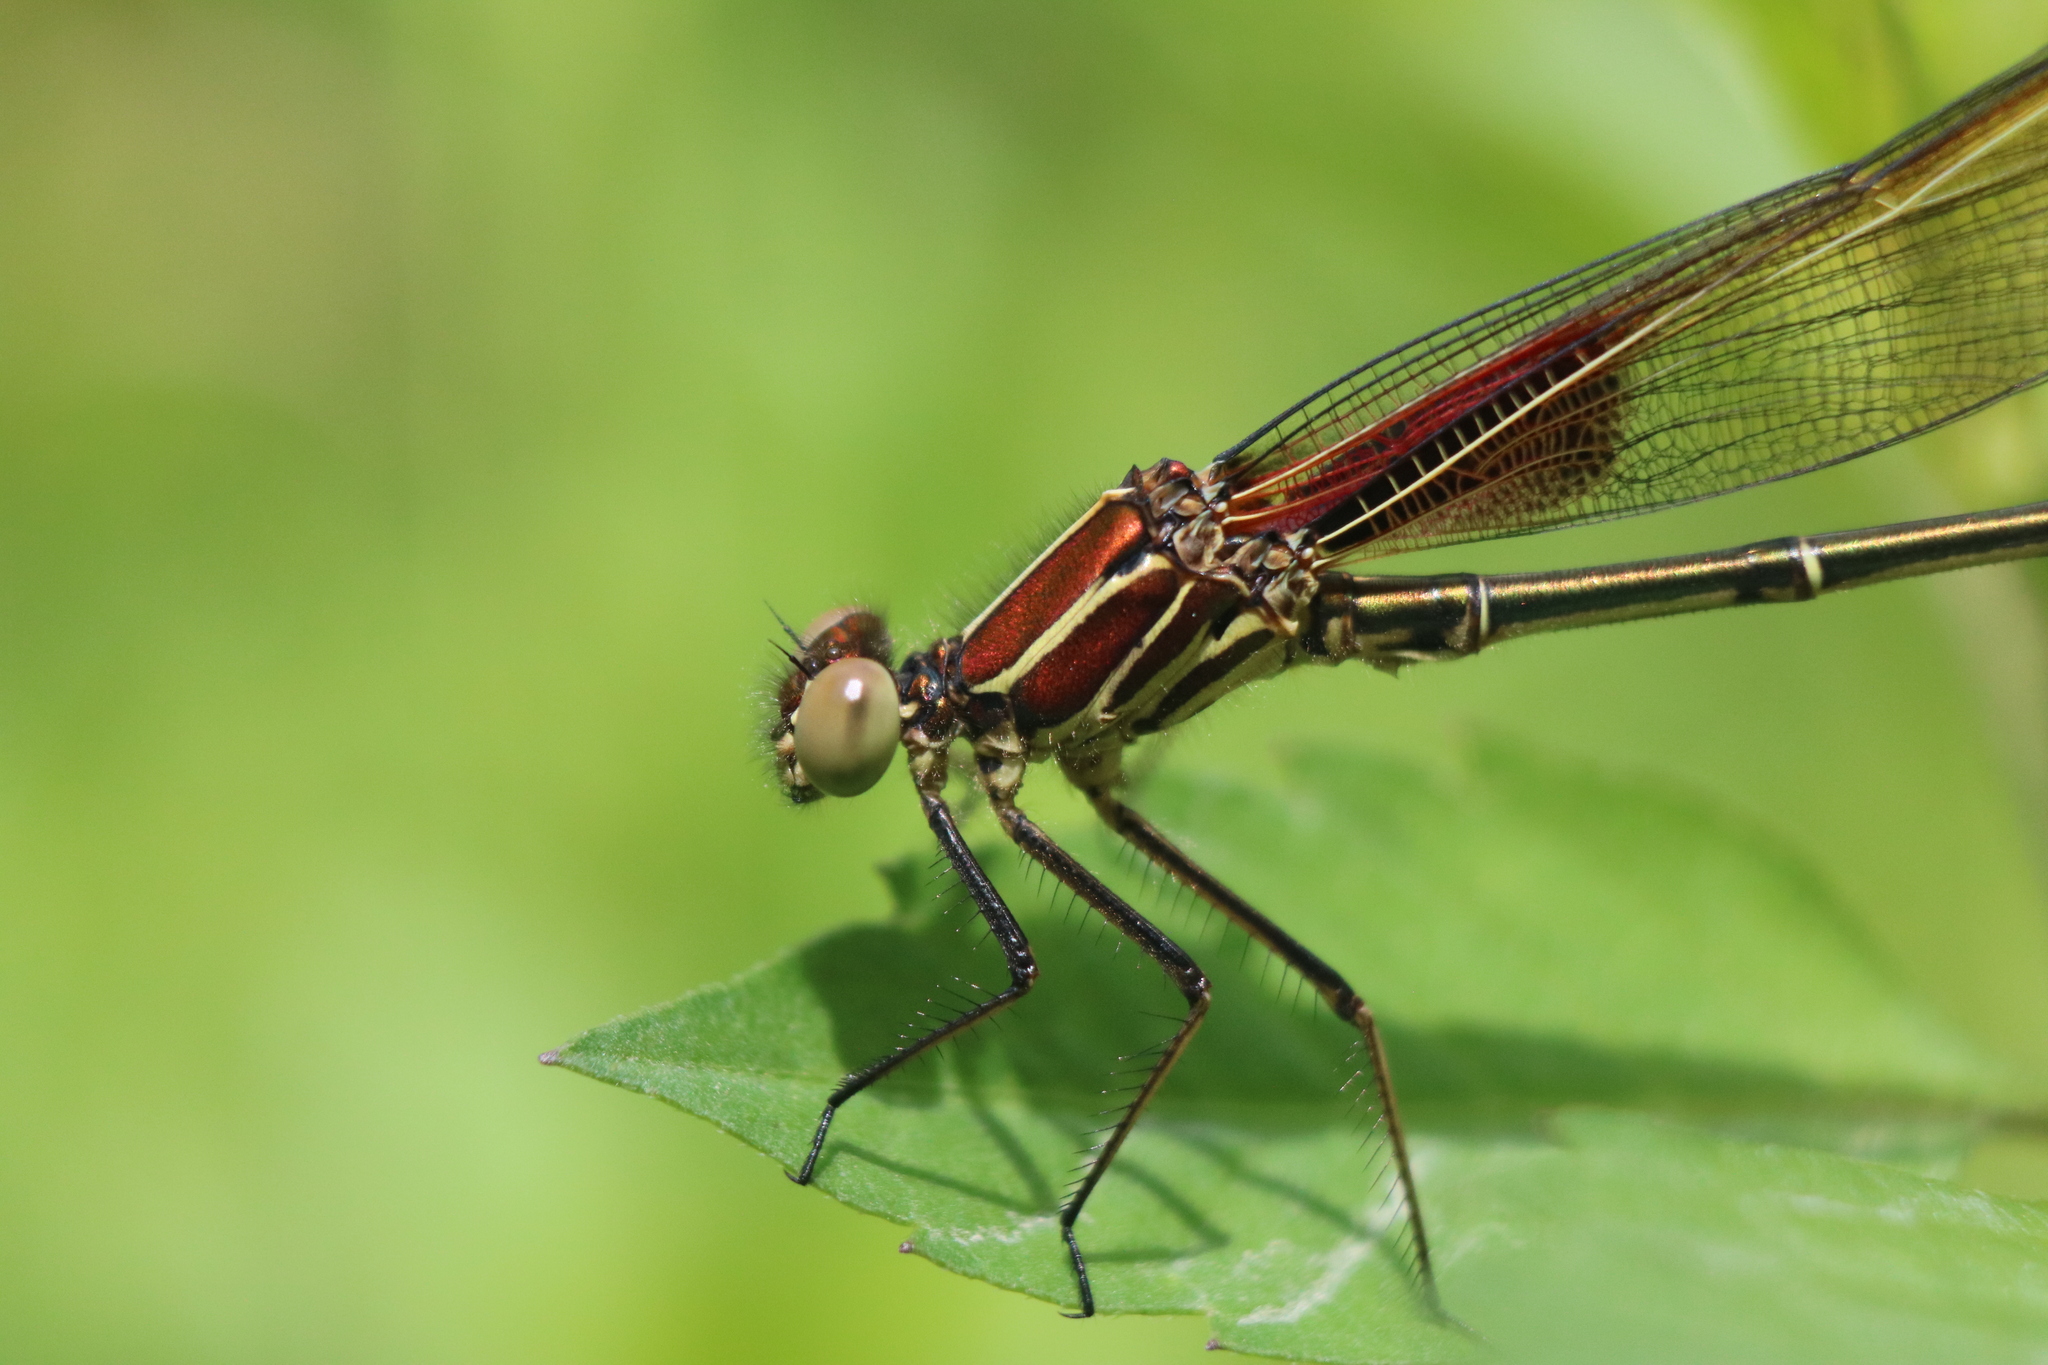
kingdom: Animalia
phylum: Arthropoda
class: Insecta
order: Odonata
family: Calopterygidae
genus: Hetaerina
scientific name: Hetaerina americana
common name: American rubyspot
